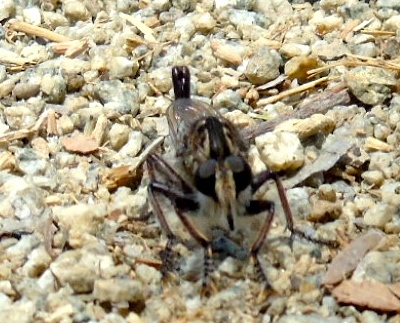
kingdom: Animalia
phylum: Arthropoda
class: Insecta
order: Diptera
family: Asilidae
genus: Efferia
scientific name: Efferia
